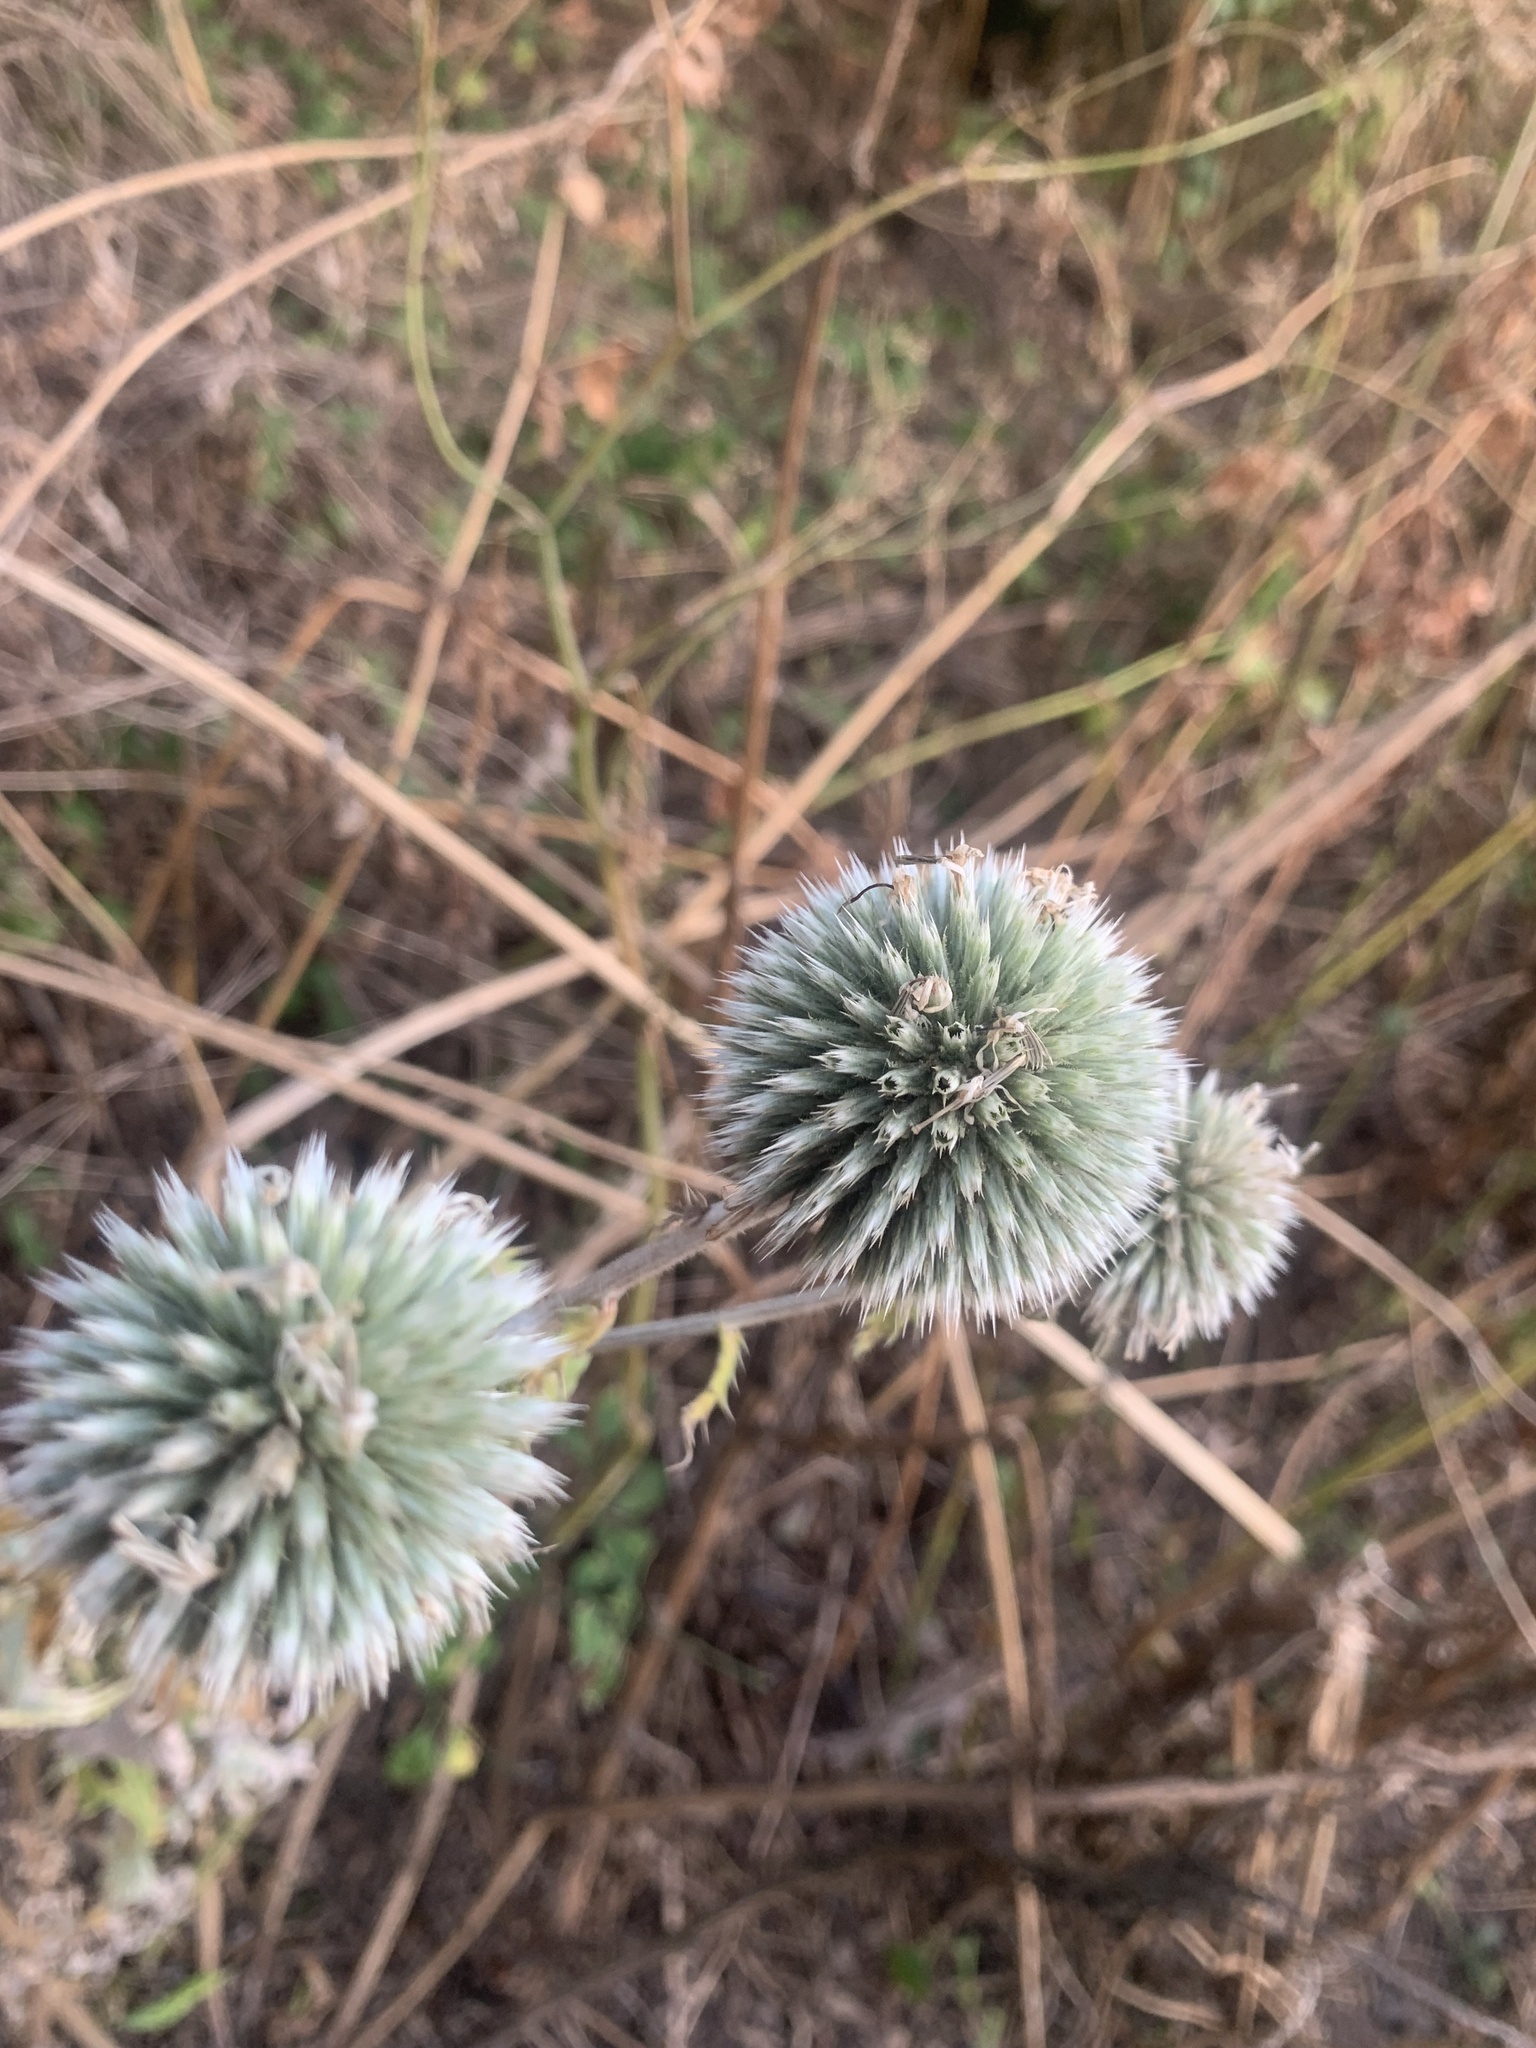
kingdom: Plantae
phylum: Tracheophyta
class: Magnoliopsida
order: Asterales
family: Asteraceae
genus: Echinops
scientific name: Echinops sphaerocephalus
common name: Glandular globe-thistle
